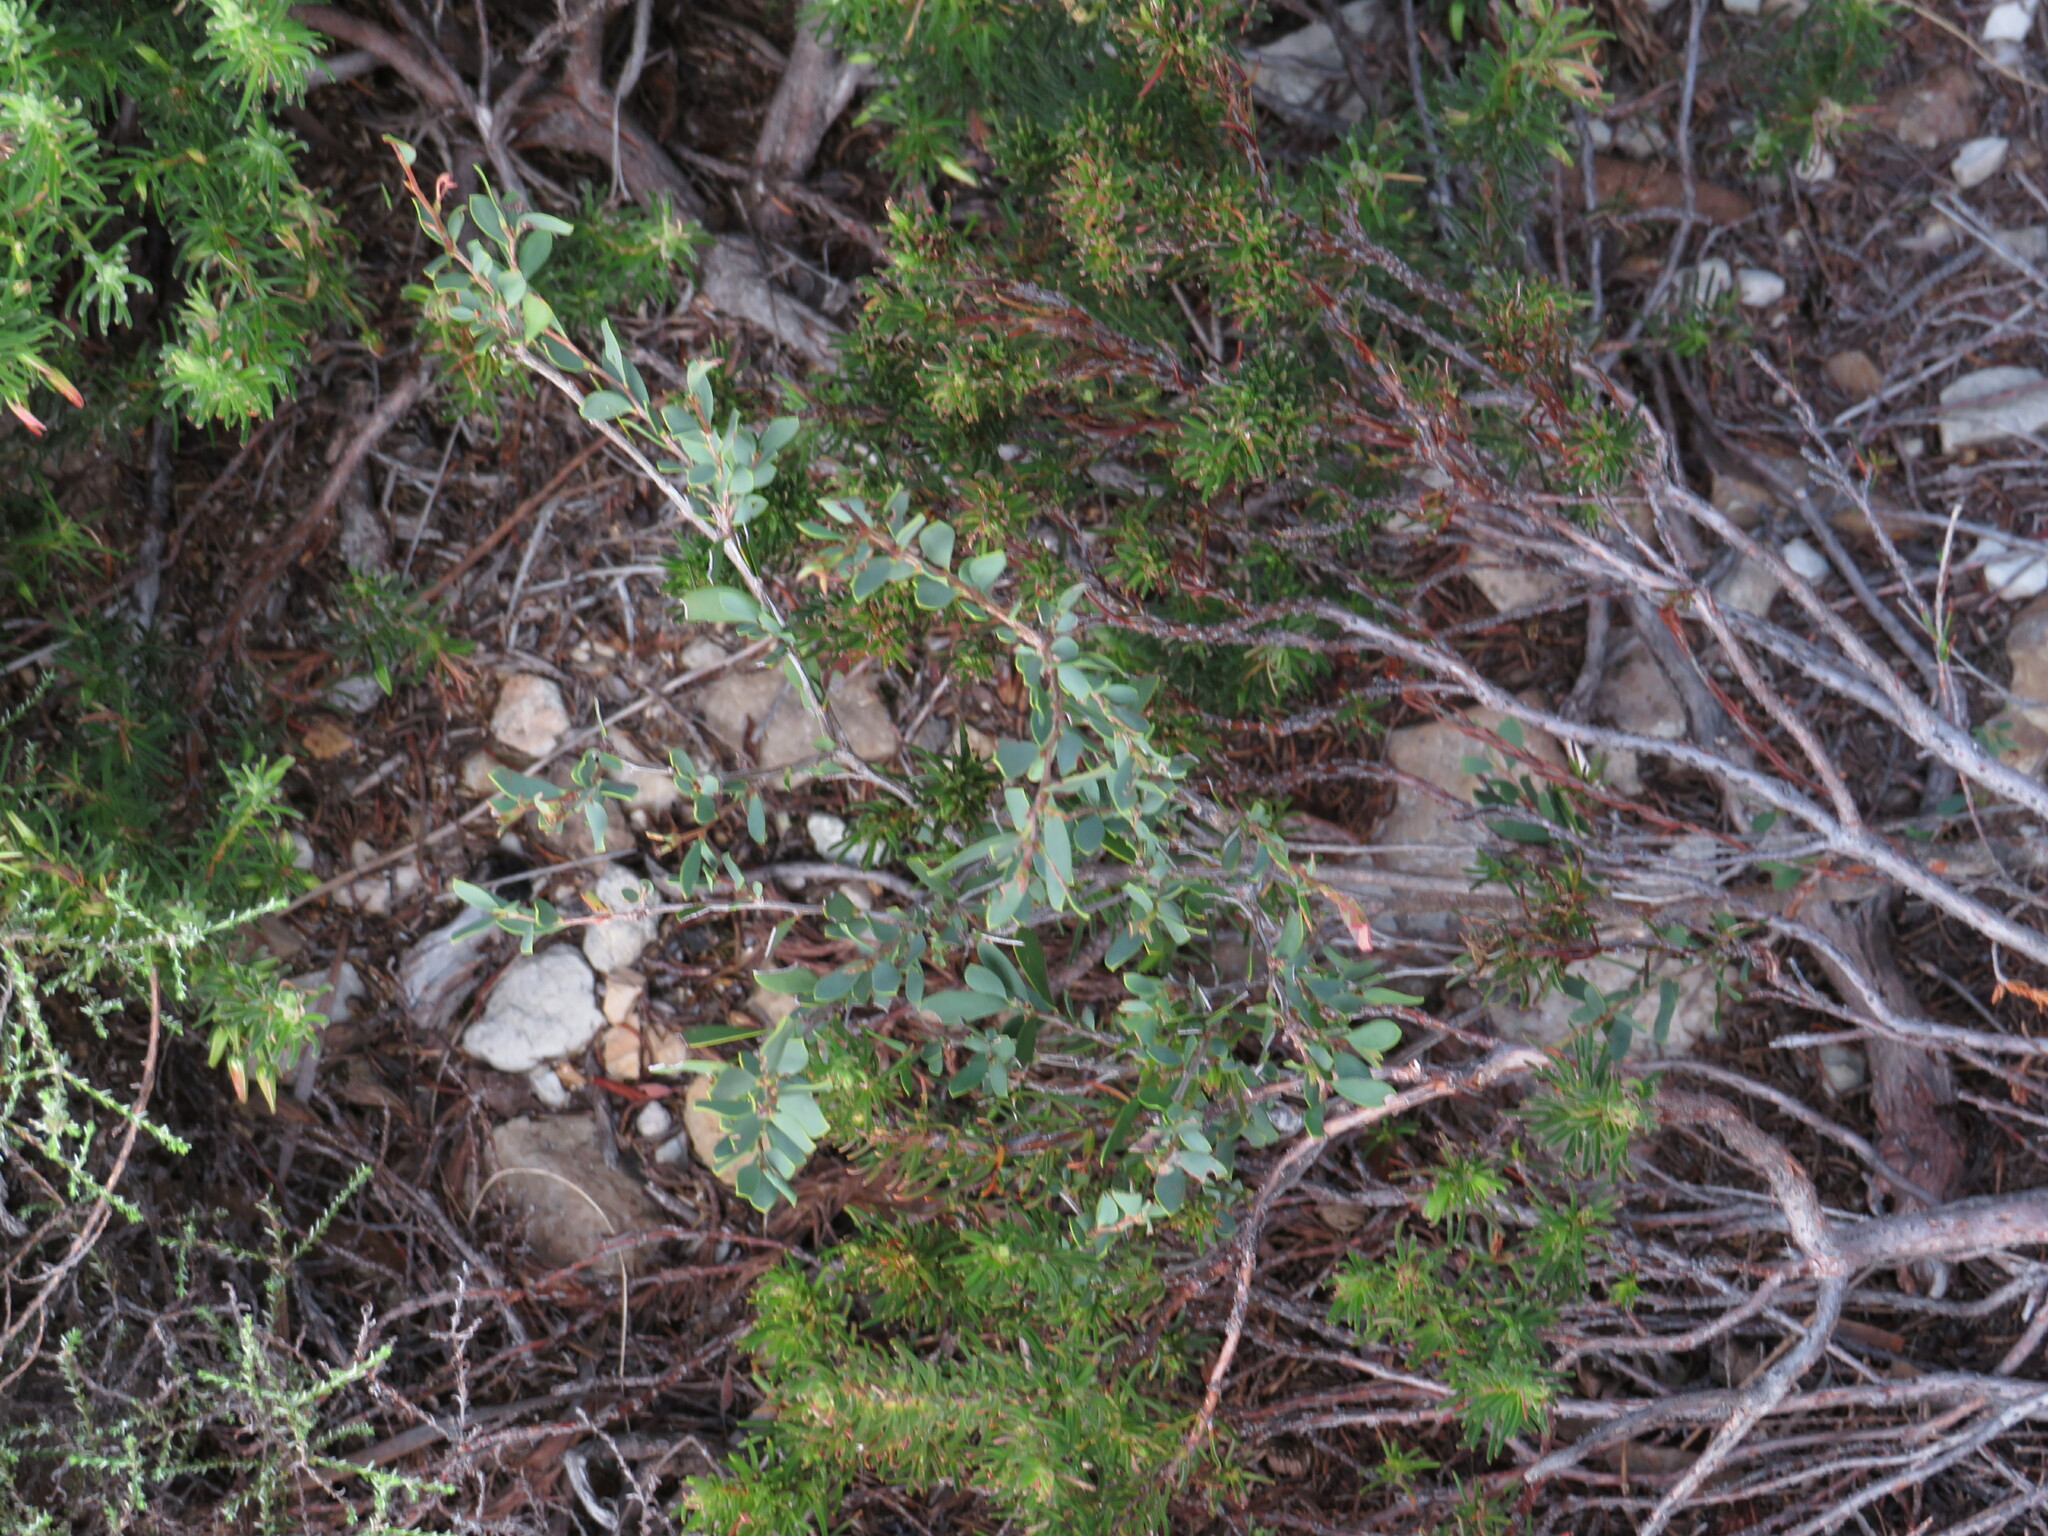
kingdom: Plantae
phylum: Tracheophyta
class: Magnoliopsida
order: Myrtales
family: Myrtaceae
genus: Leptospermum
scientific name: Leptospermum laevigatum
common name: Australian teatree
